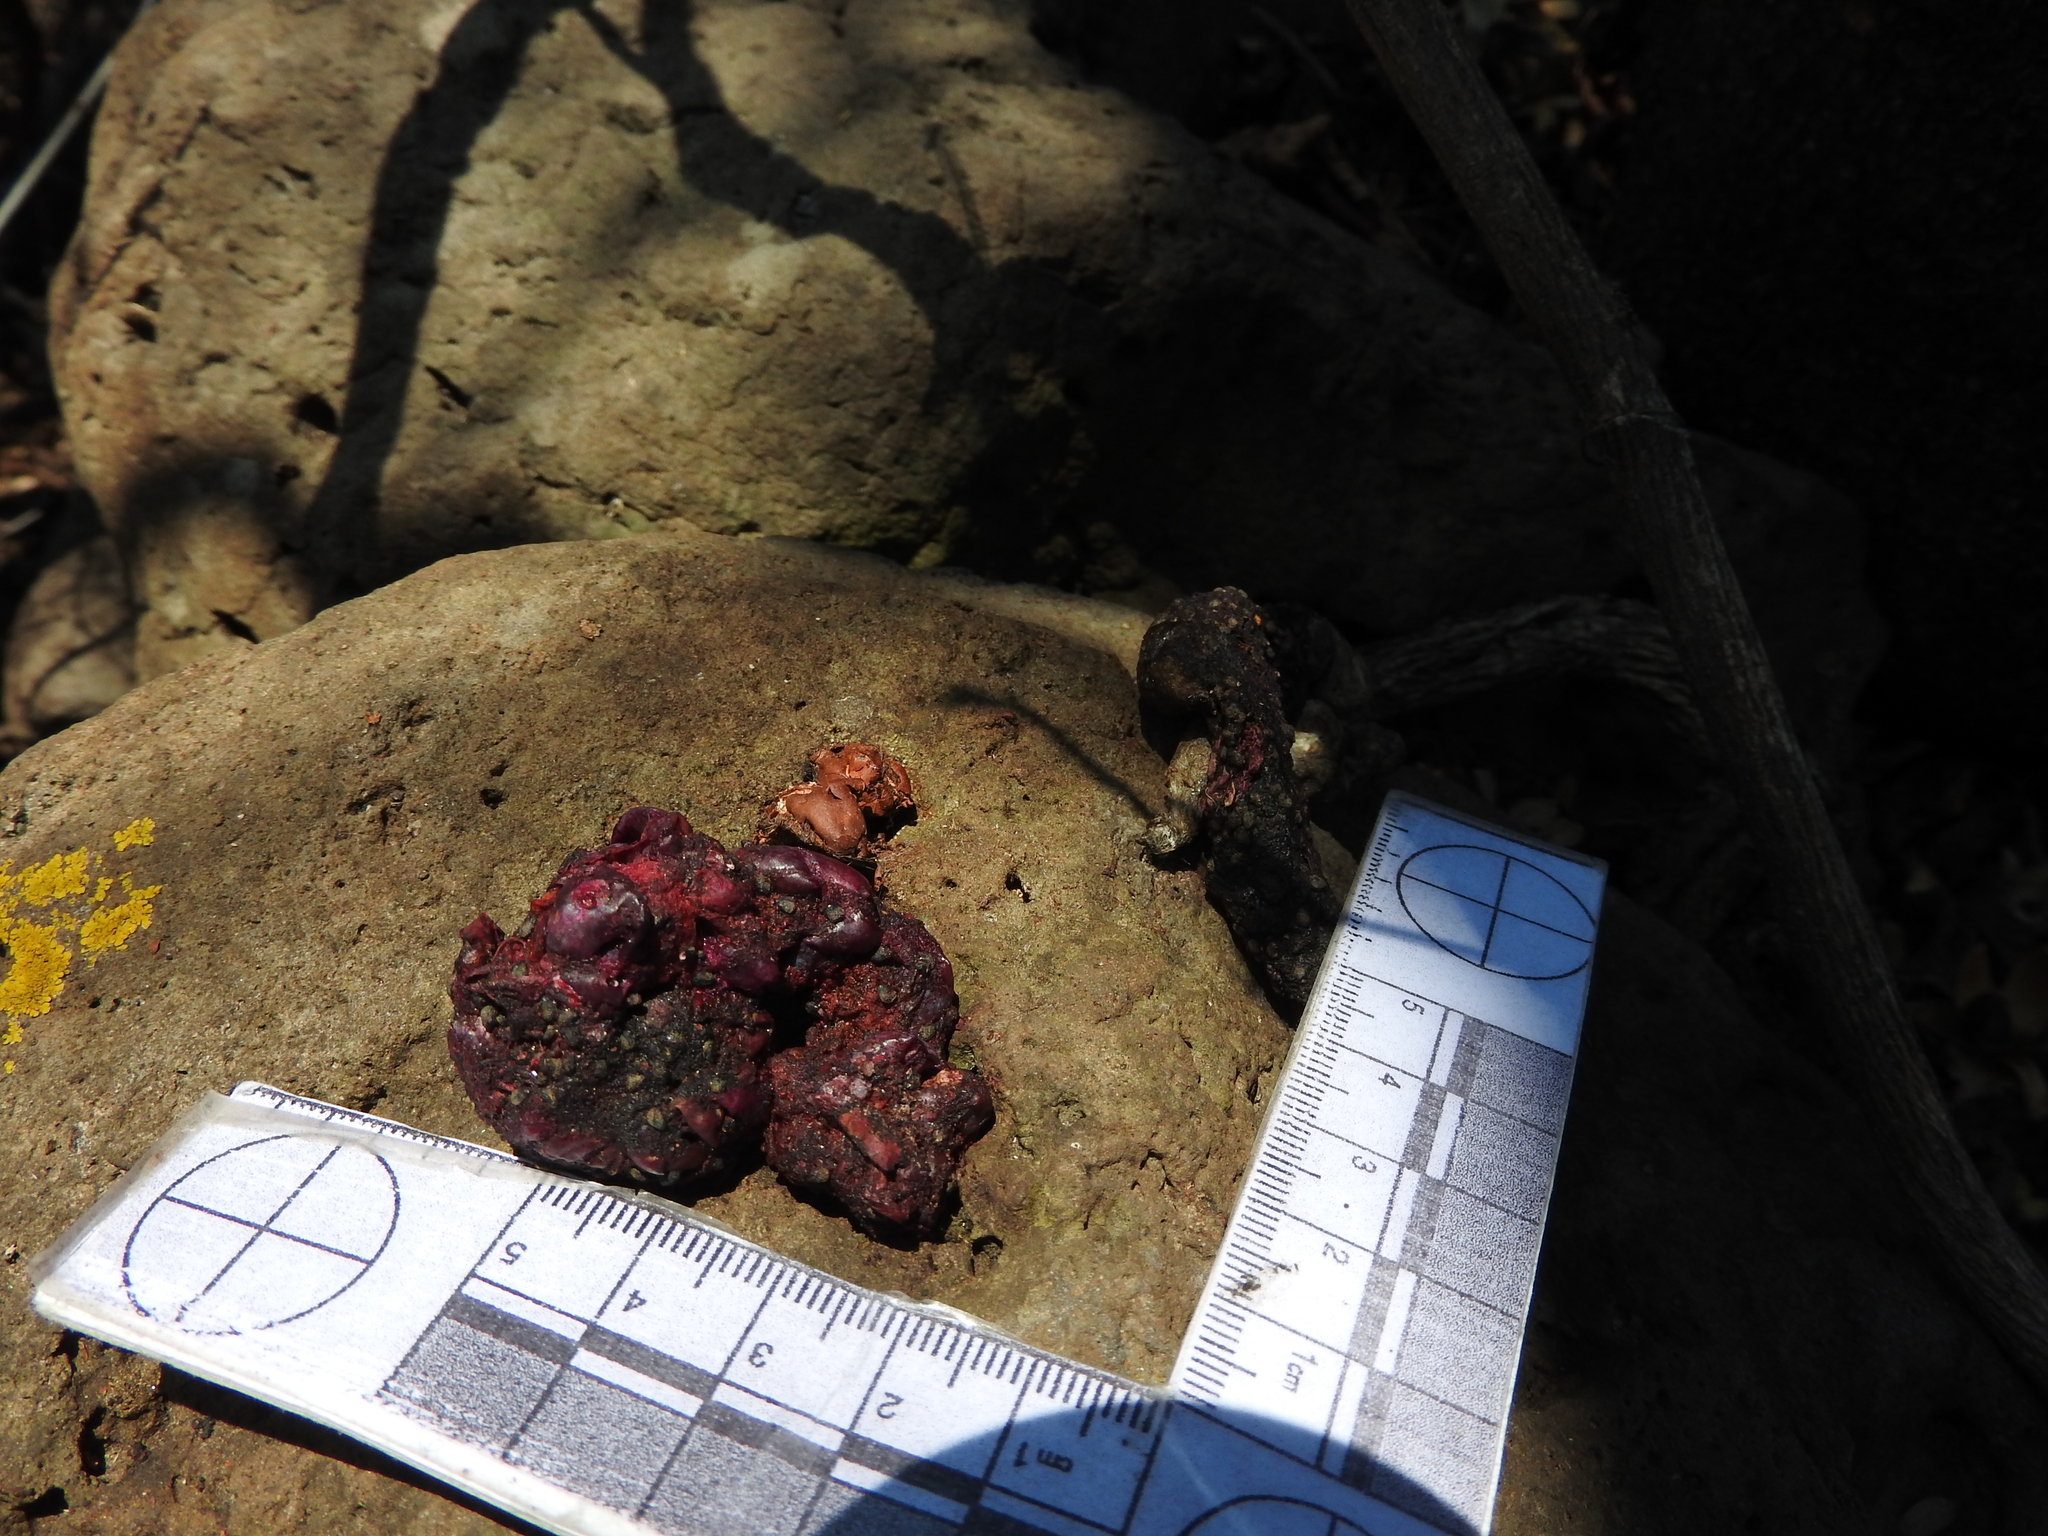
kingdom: Animalia
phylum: Chordata
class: Mammalia
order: Carnivora
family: Procyonidae
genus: Bassariscus
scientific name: Bassariscus astutus
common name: Ringtail
